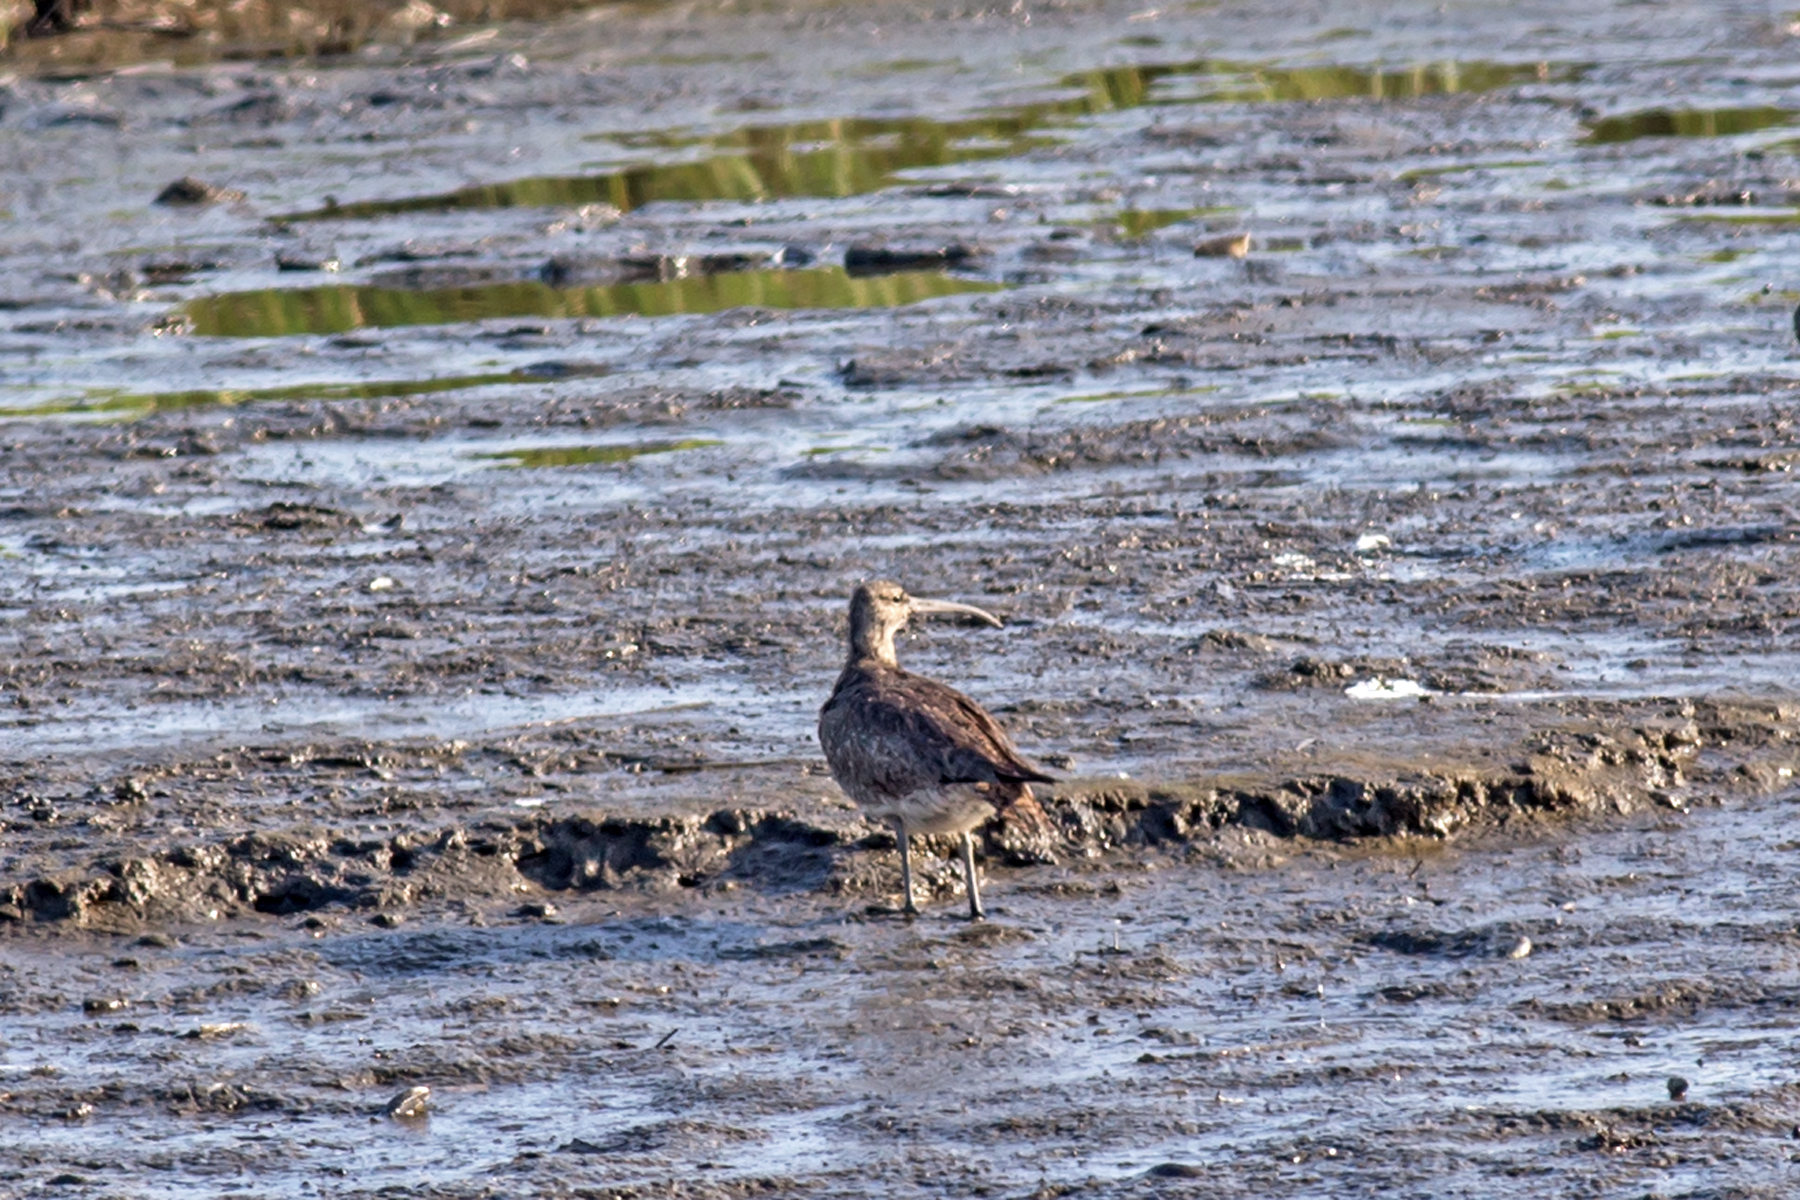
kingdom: Animalia
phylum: Chordata
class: Aves
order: Charadriiformes
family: Scolopacidae
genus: Numenius
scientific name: Numenius phaeopus
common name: Whimbrel
